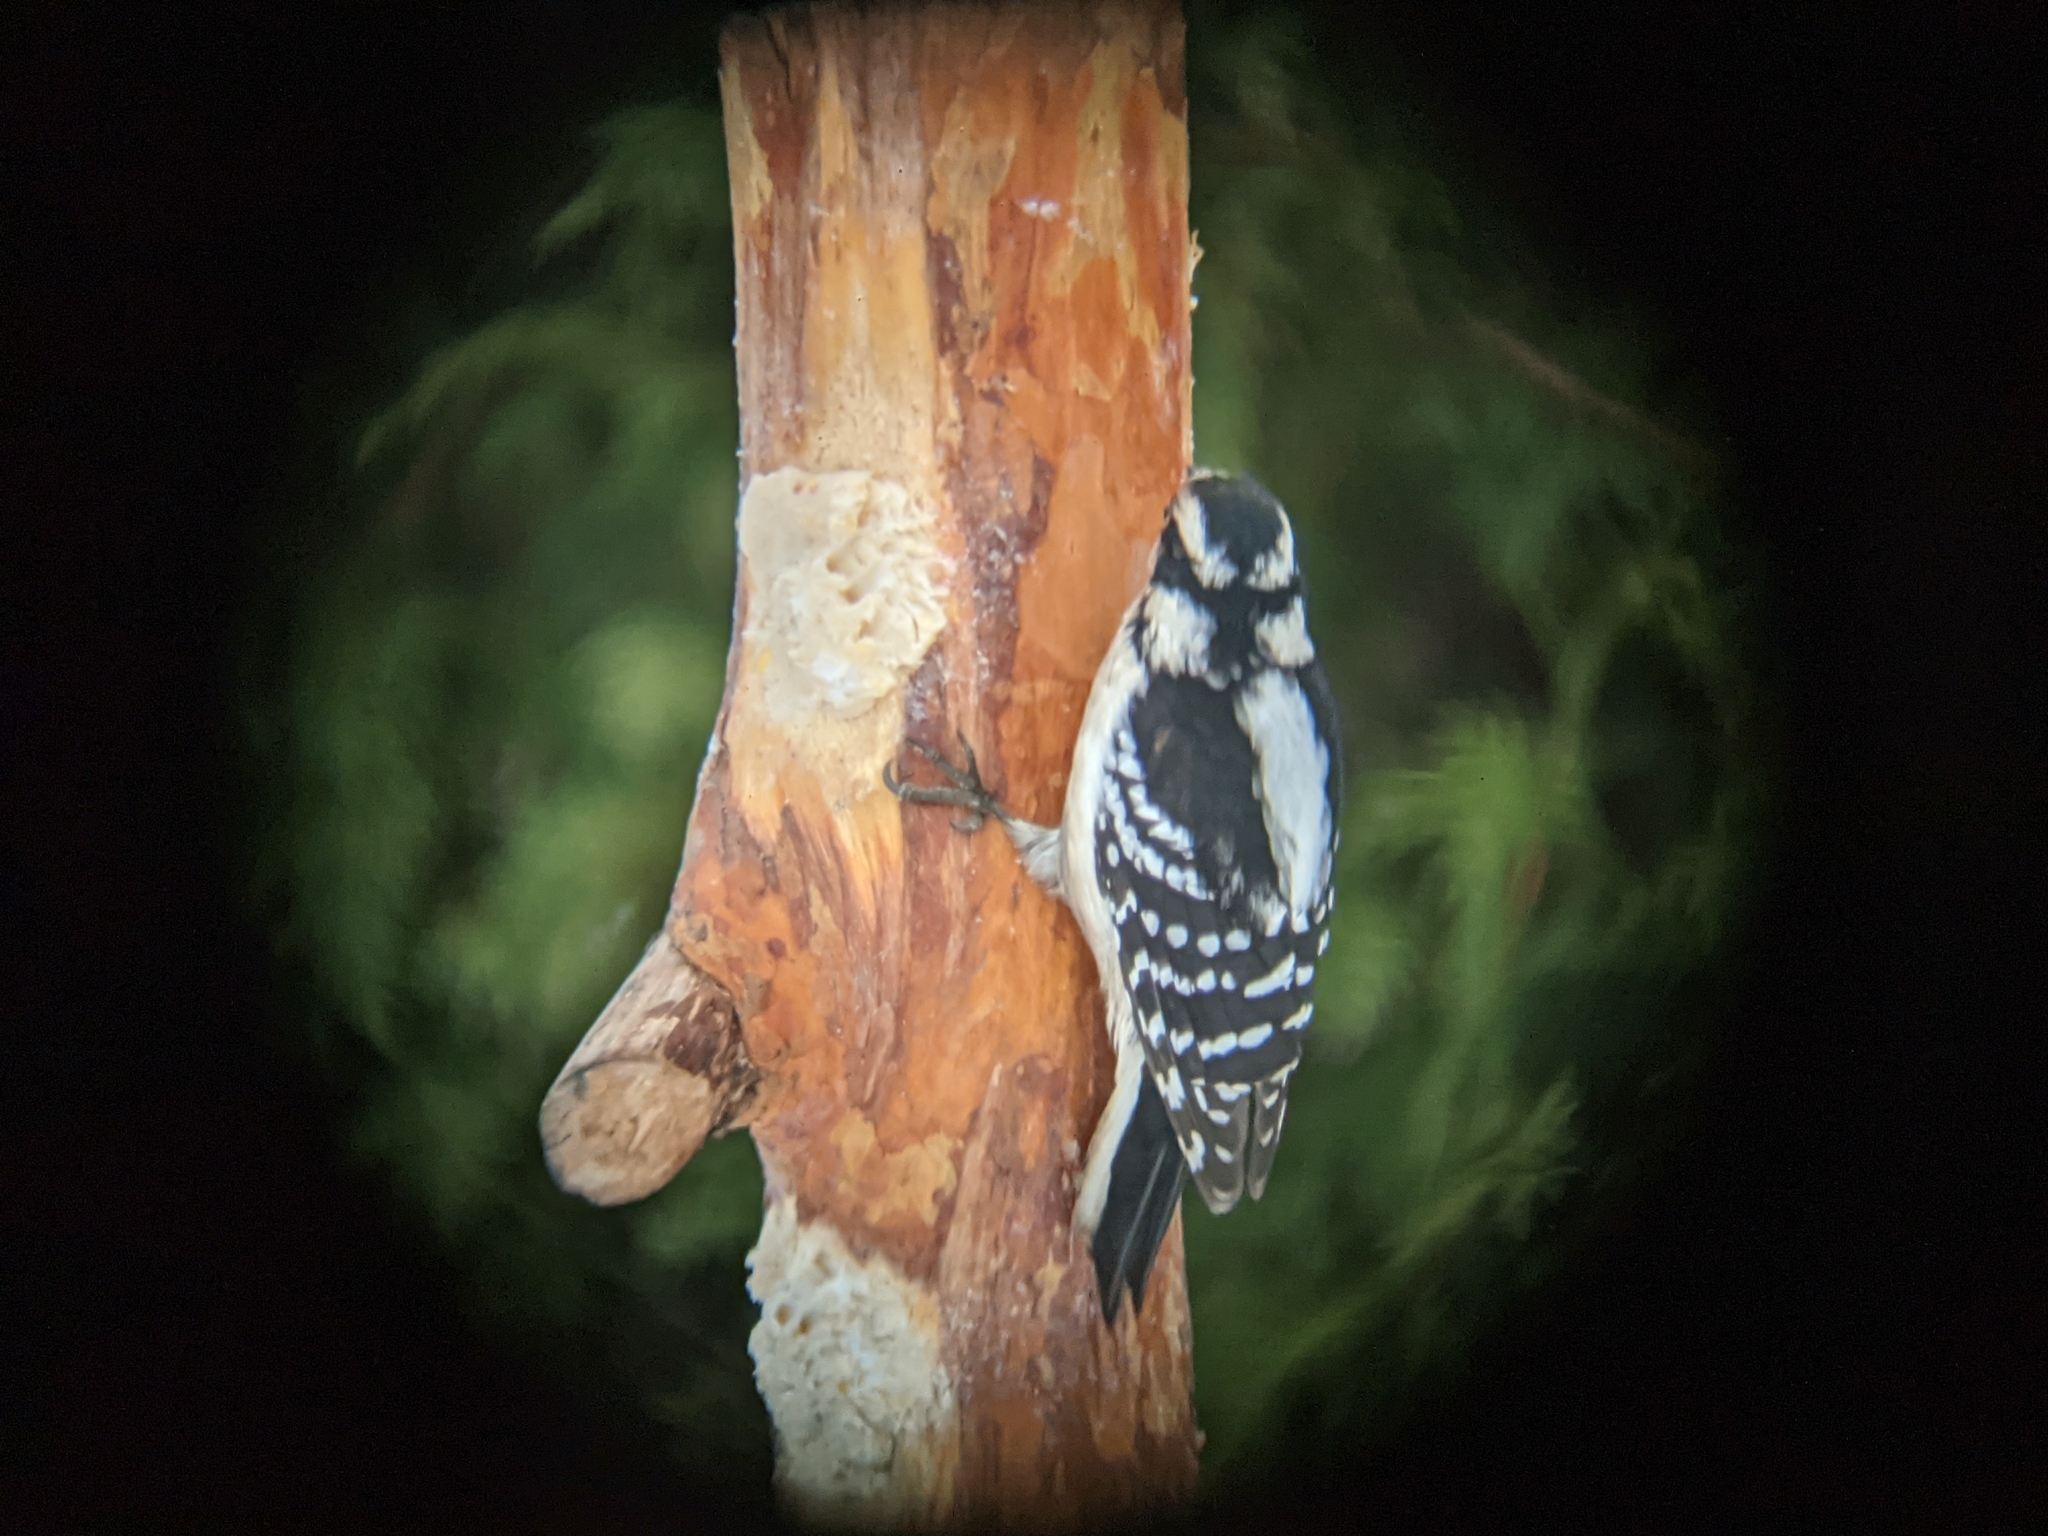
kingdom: Animalia
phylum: Chordata
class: Aves
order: Piciformes
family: Picidae
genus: Dryobates
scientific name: Dryobates pubescens
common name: Downy woodpecker
